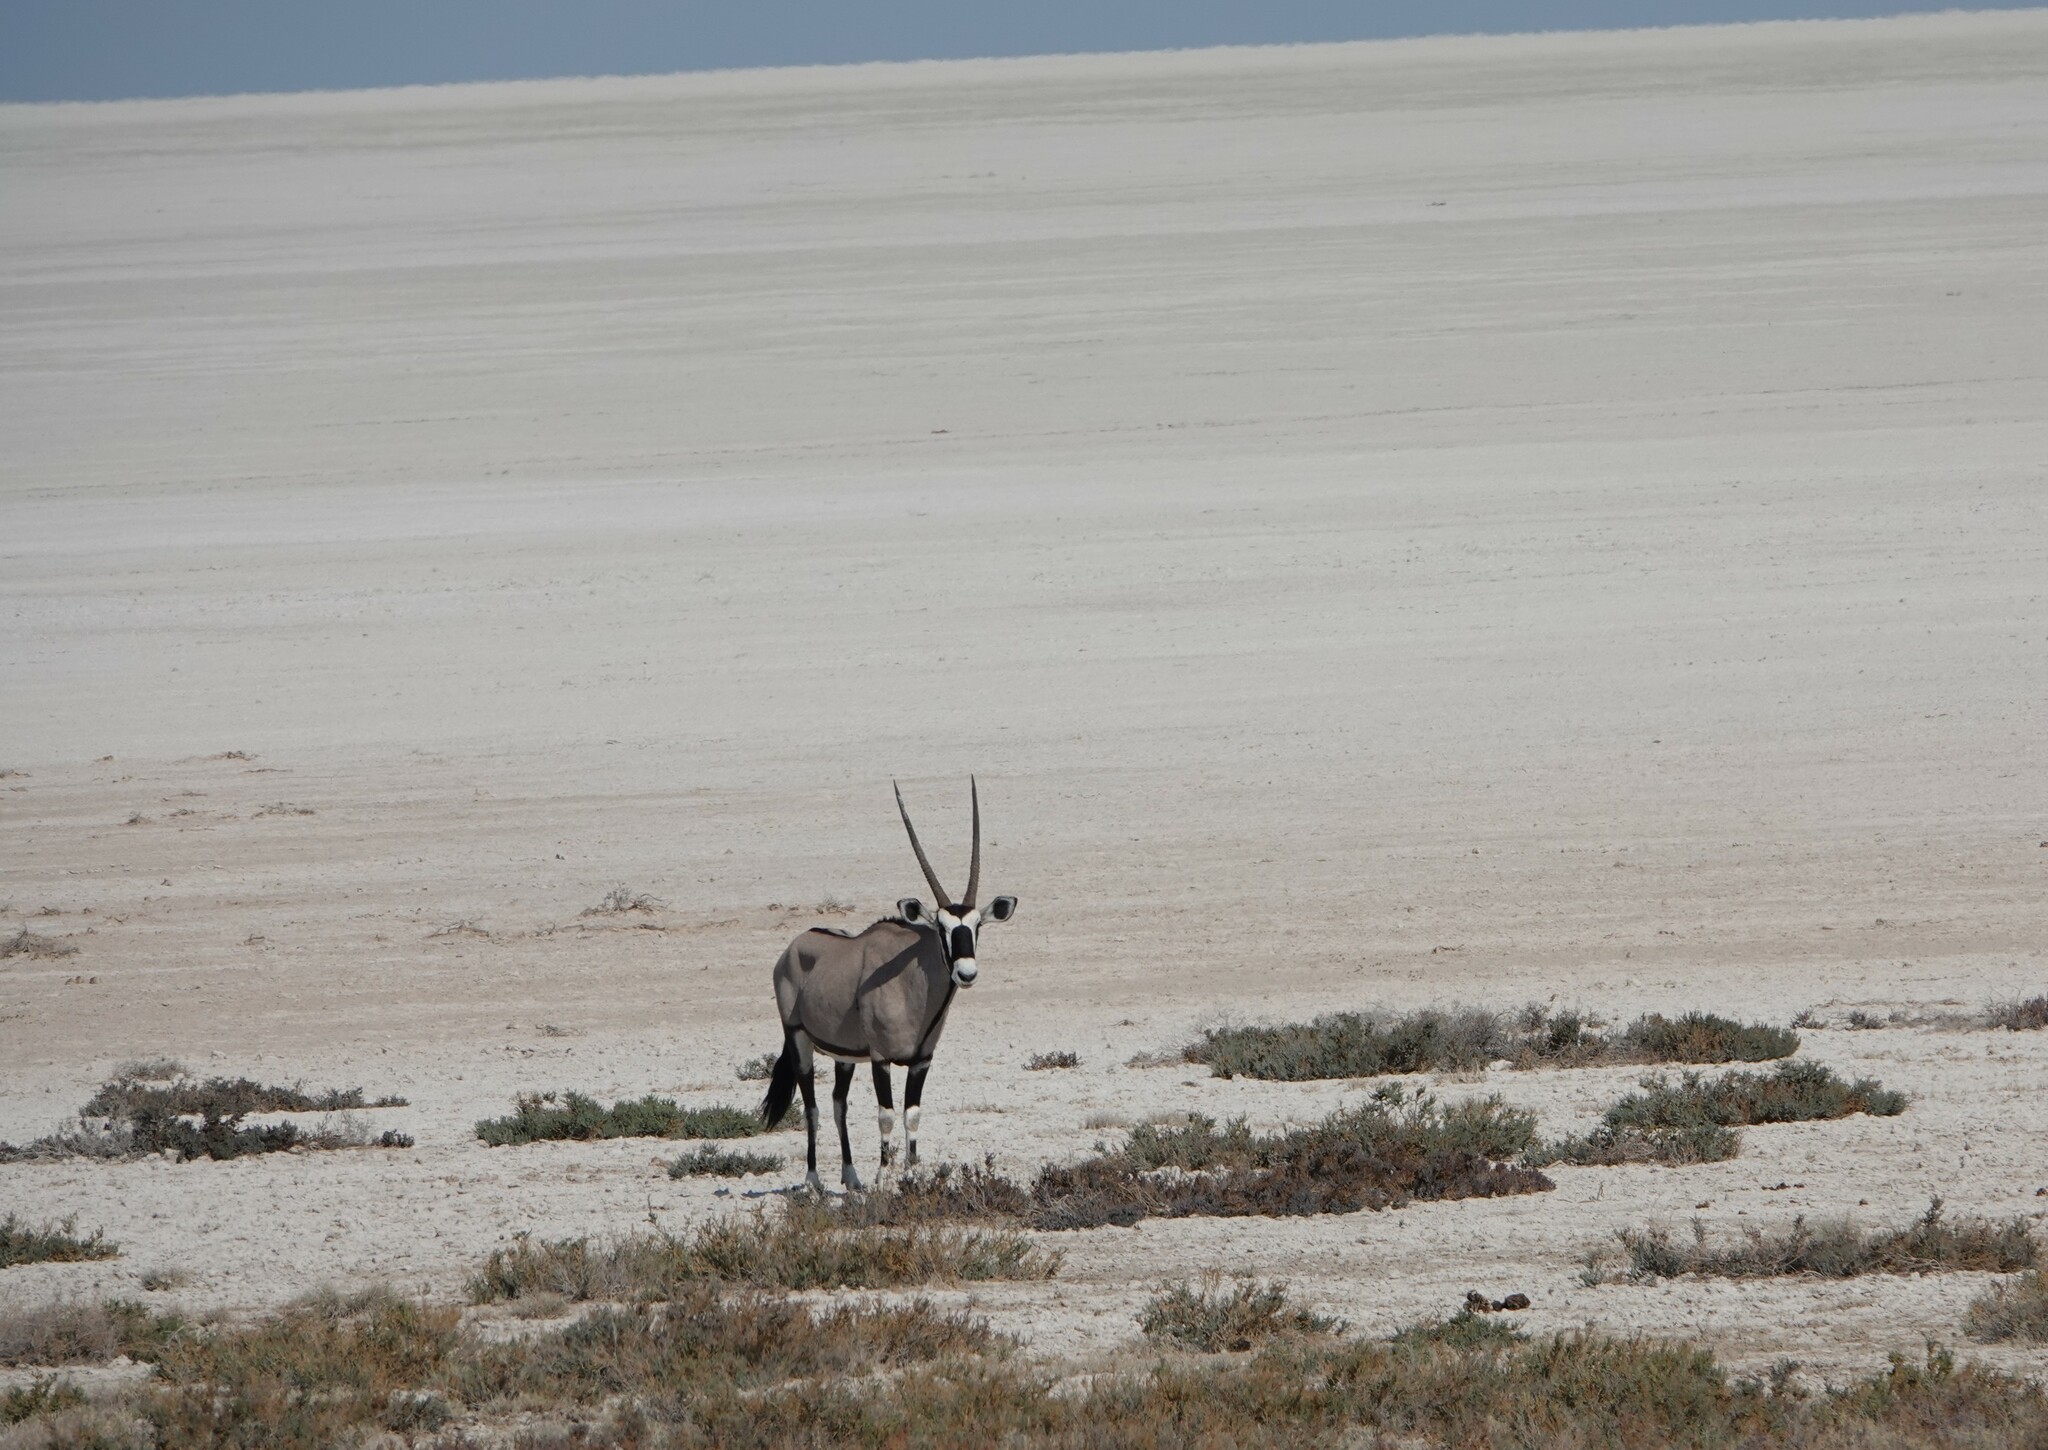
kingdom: Animalia
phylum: Chordata
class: Mammalia
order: Artiodactyla
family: Bovidae
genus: Oryx
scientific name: Oryx gazella
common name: Gemsbok
